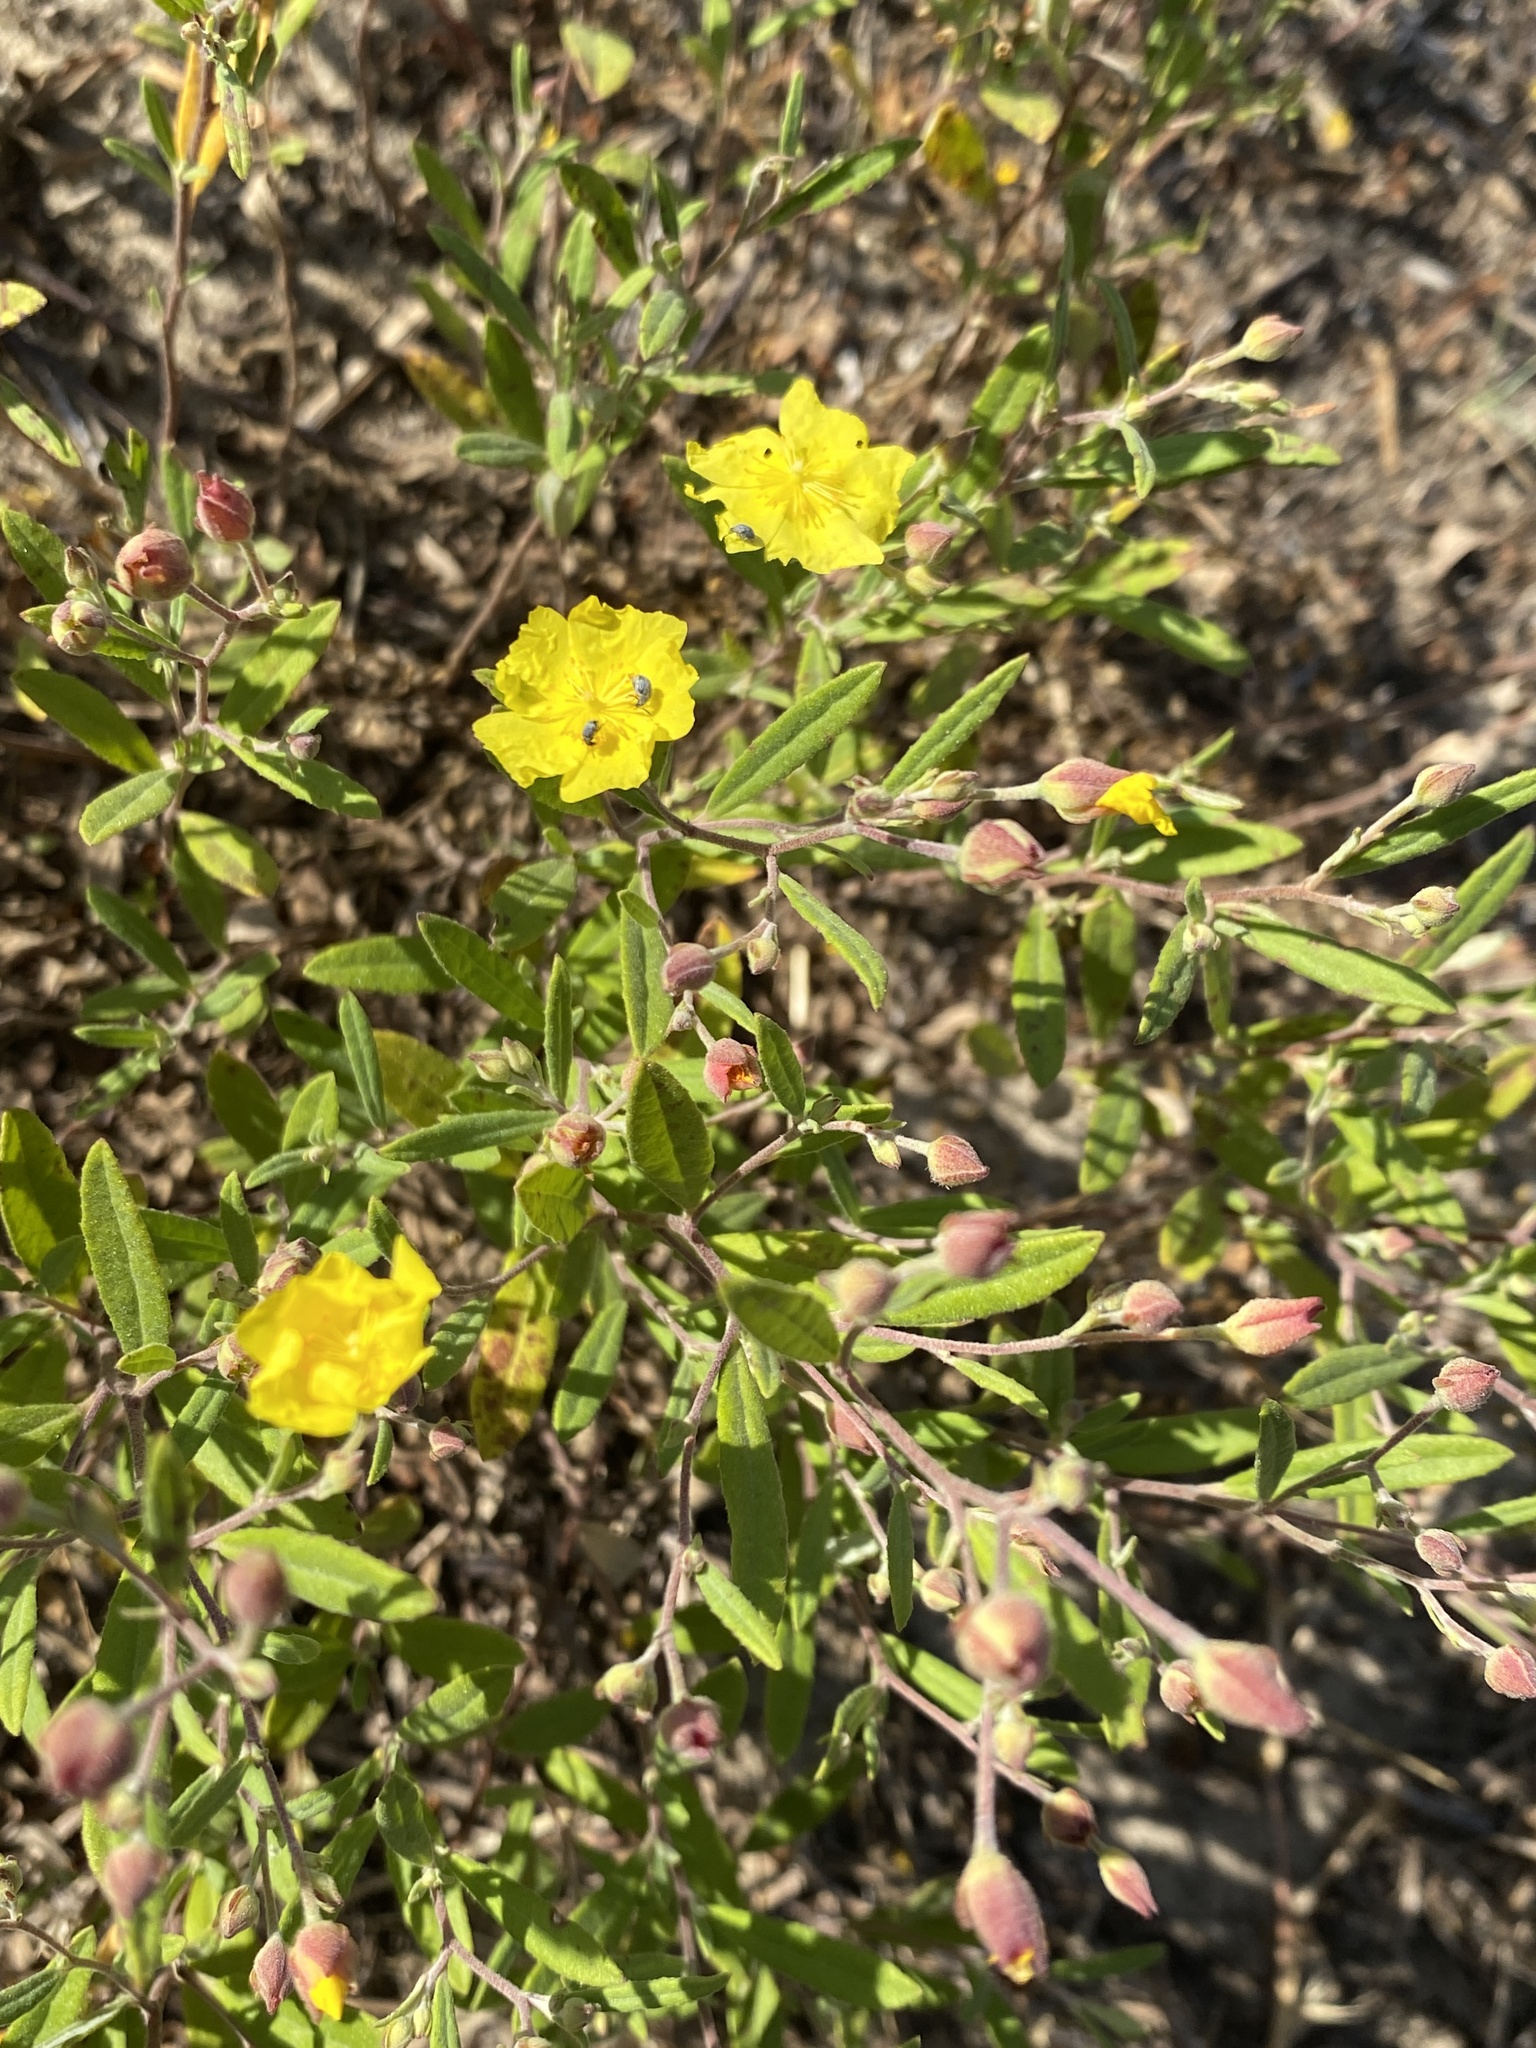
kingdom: Plantae
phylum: Tracheophyta
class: Magnoliopsida
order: Malvales
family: Cistaceae
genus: Crocanthemum
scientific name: Crocanthemum georgianum
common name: Georgia frostweed
